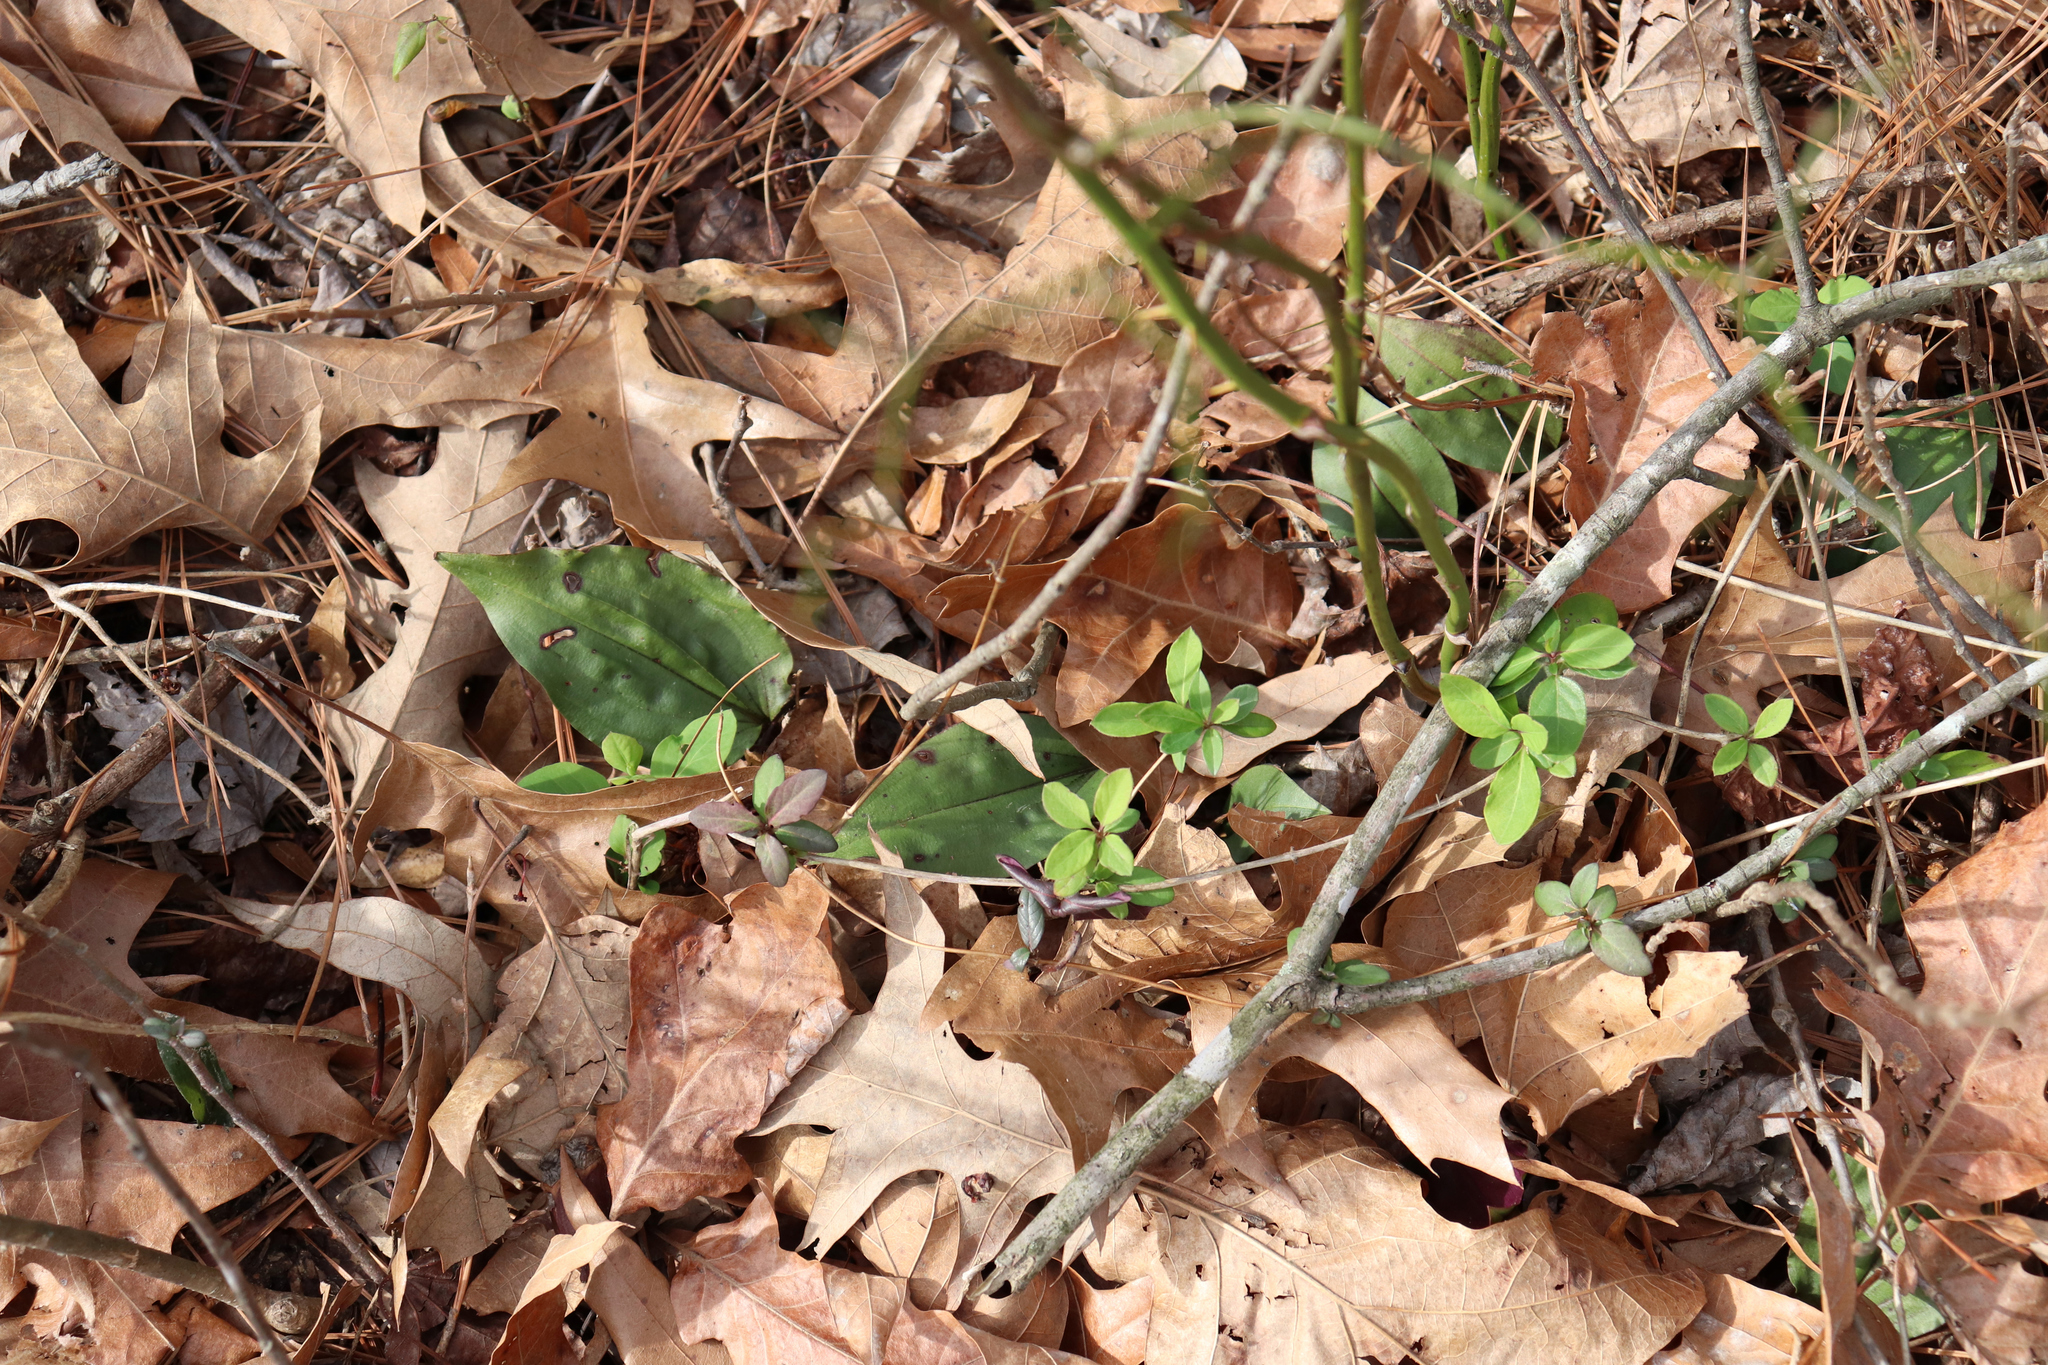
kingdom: Plantae
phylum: Tracheophyta
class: Liliopsida
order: Asparagales
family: Orchidaceae
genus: Tipularia
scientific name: Tipularia discolor
